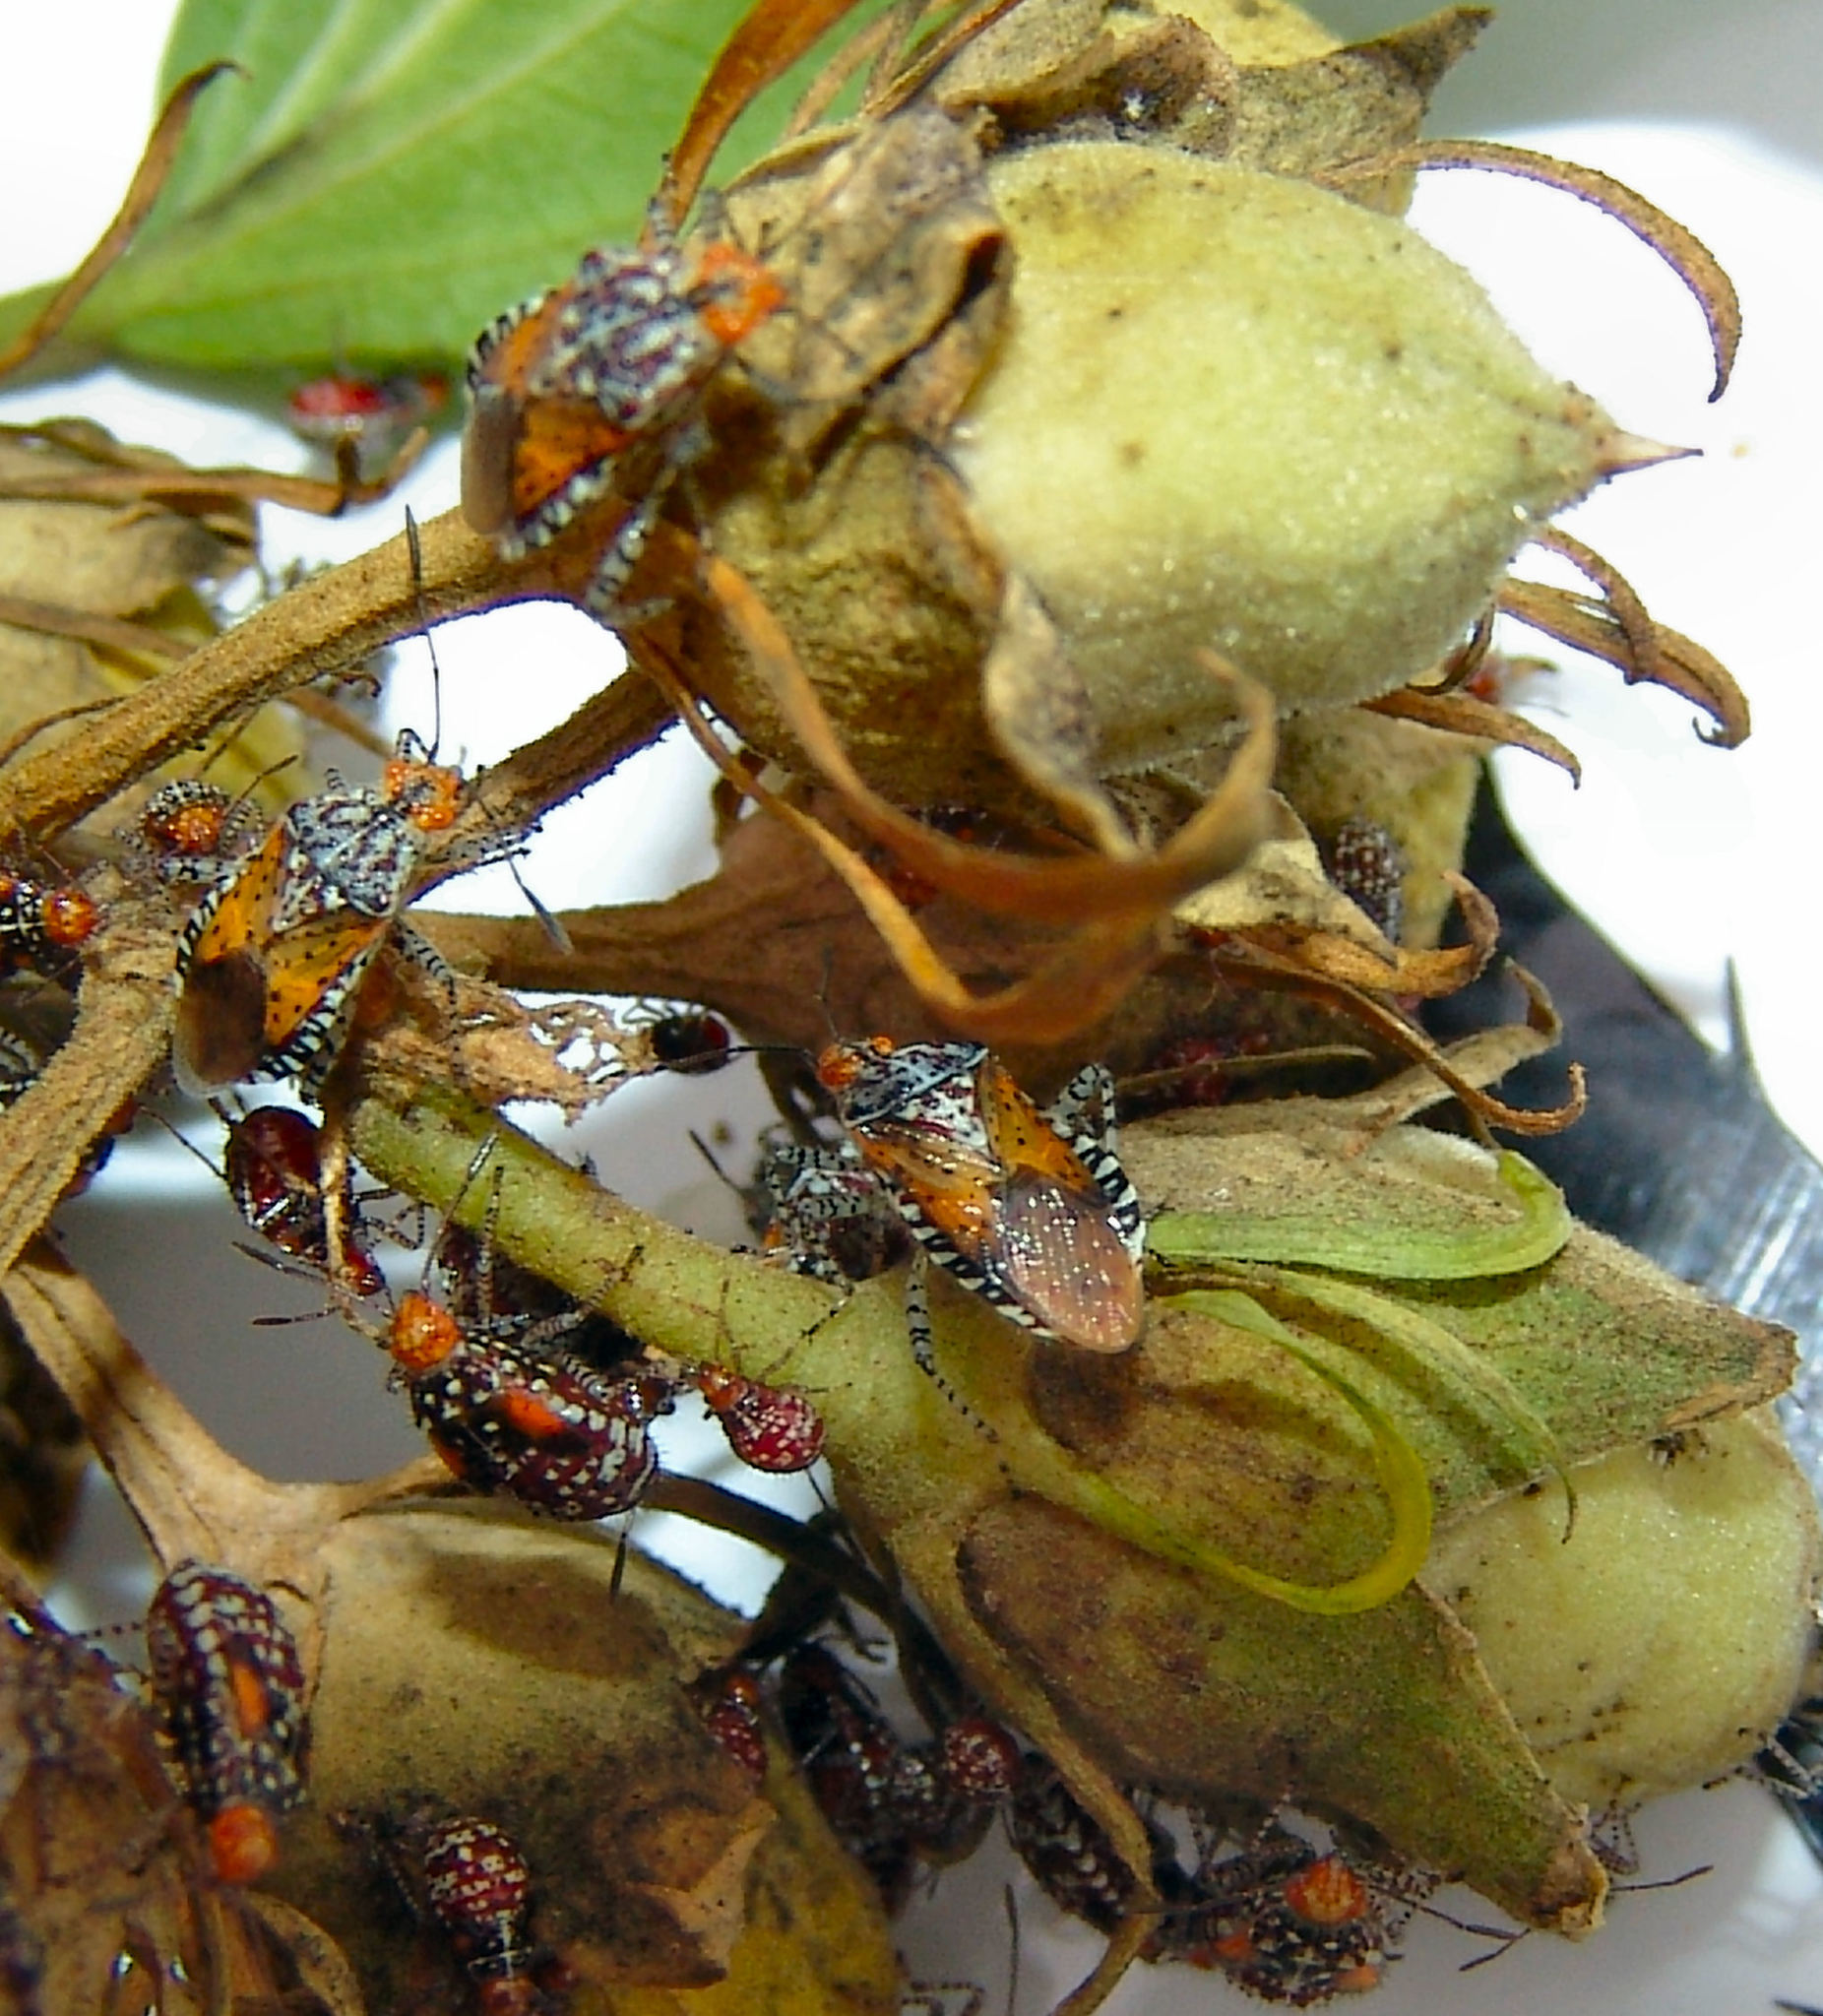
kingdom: Animalia
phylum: Arthropoda
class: Insecta
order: Hemiptera
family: Rhopalidae
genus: Niesthrea
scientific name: Niesthrea louisianica
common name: Scentless plant bug
